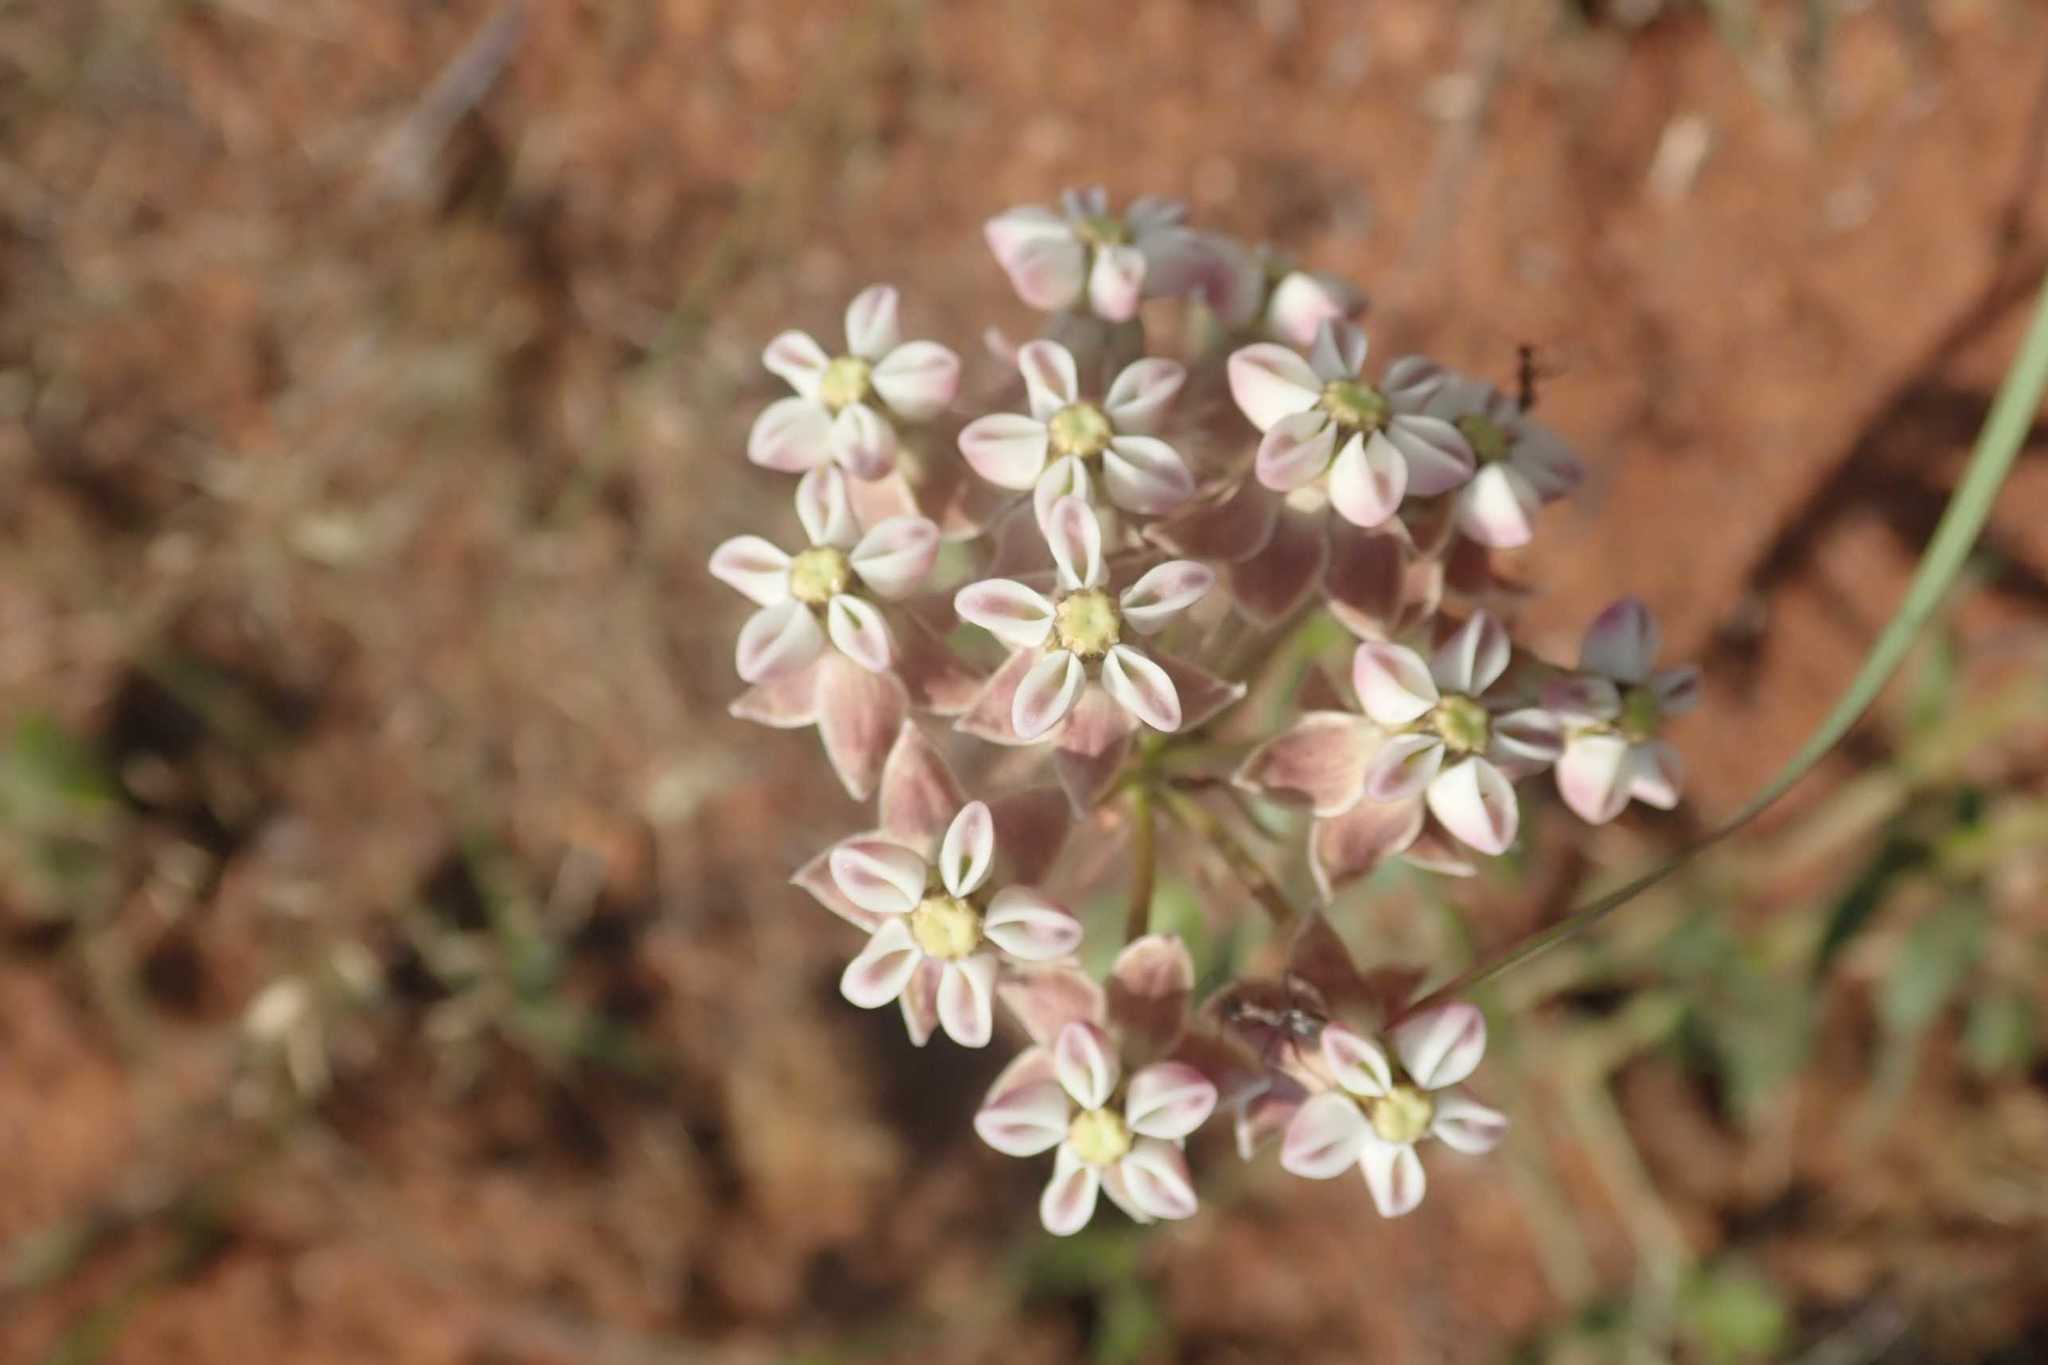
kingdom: Plantae
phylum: Tracheophyta
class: Magnoliopsida
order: Gentianales
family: Apocynaceae
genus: Asclepias
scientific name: Asclepias adscendens
